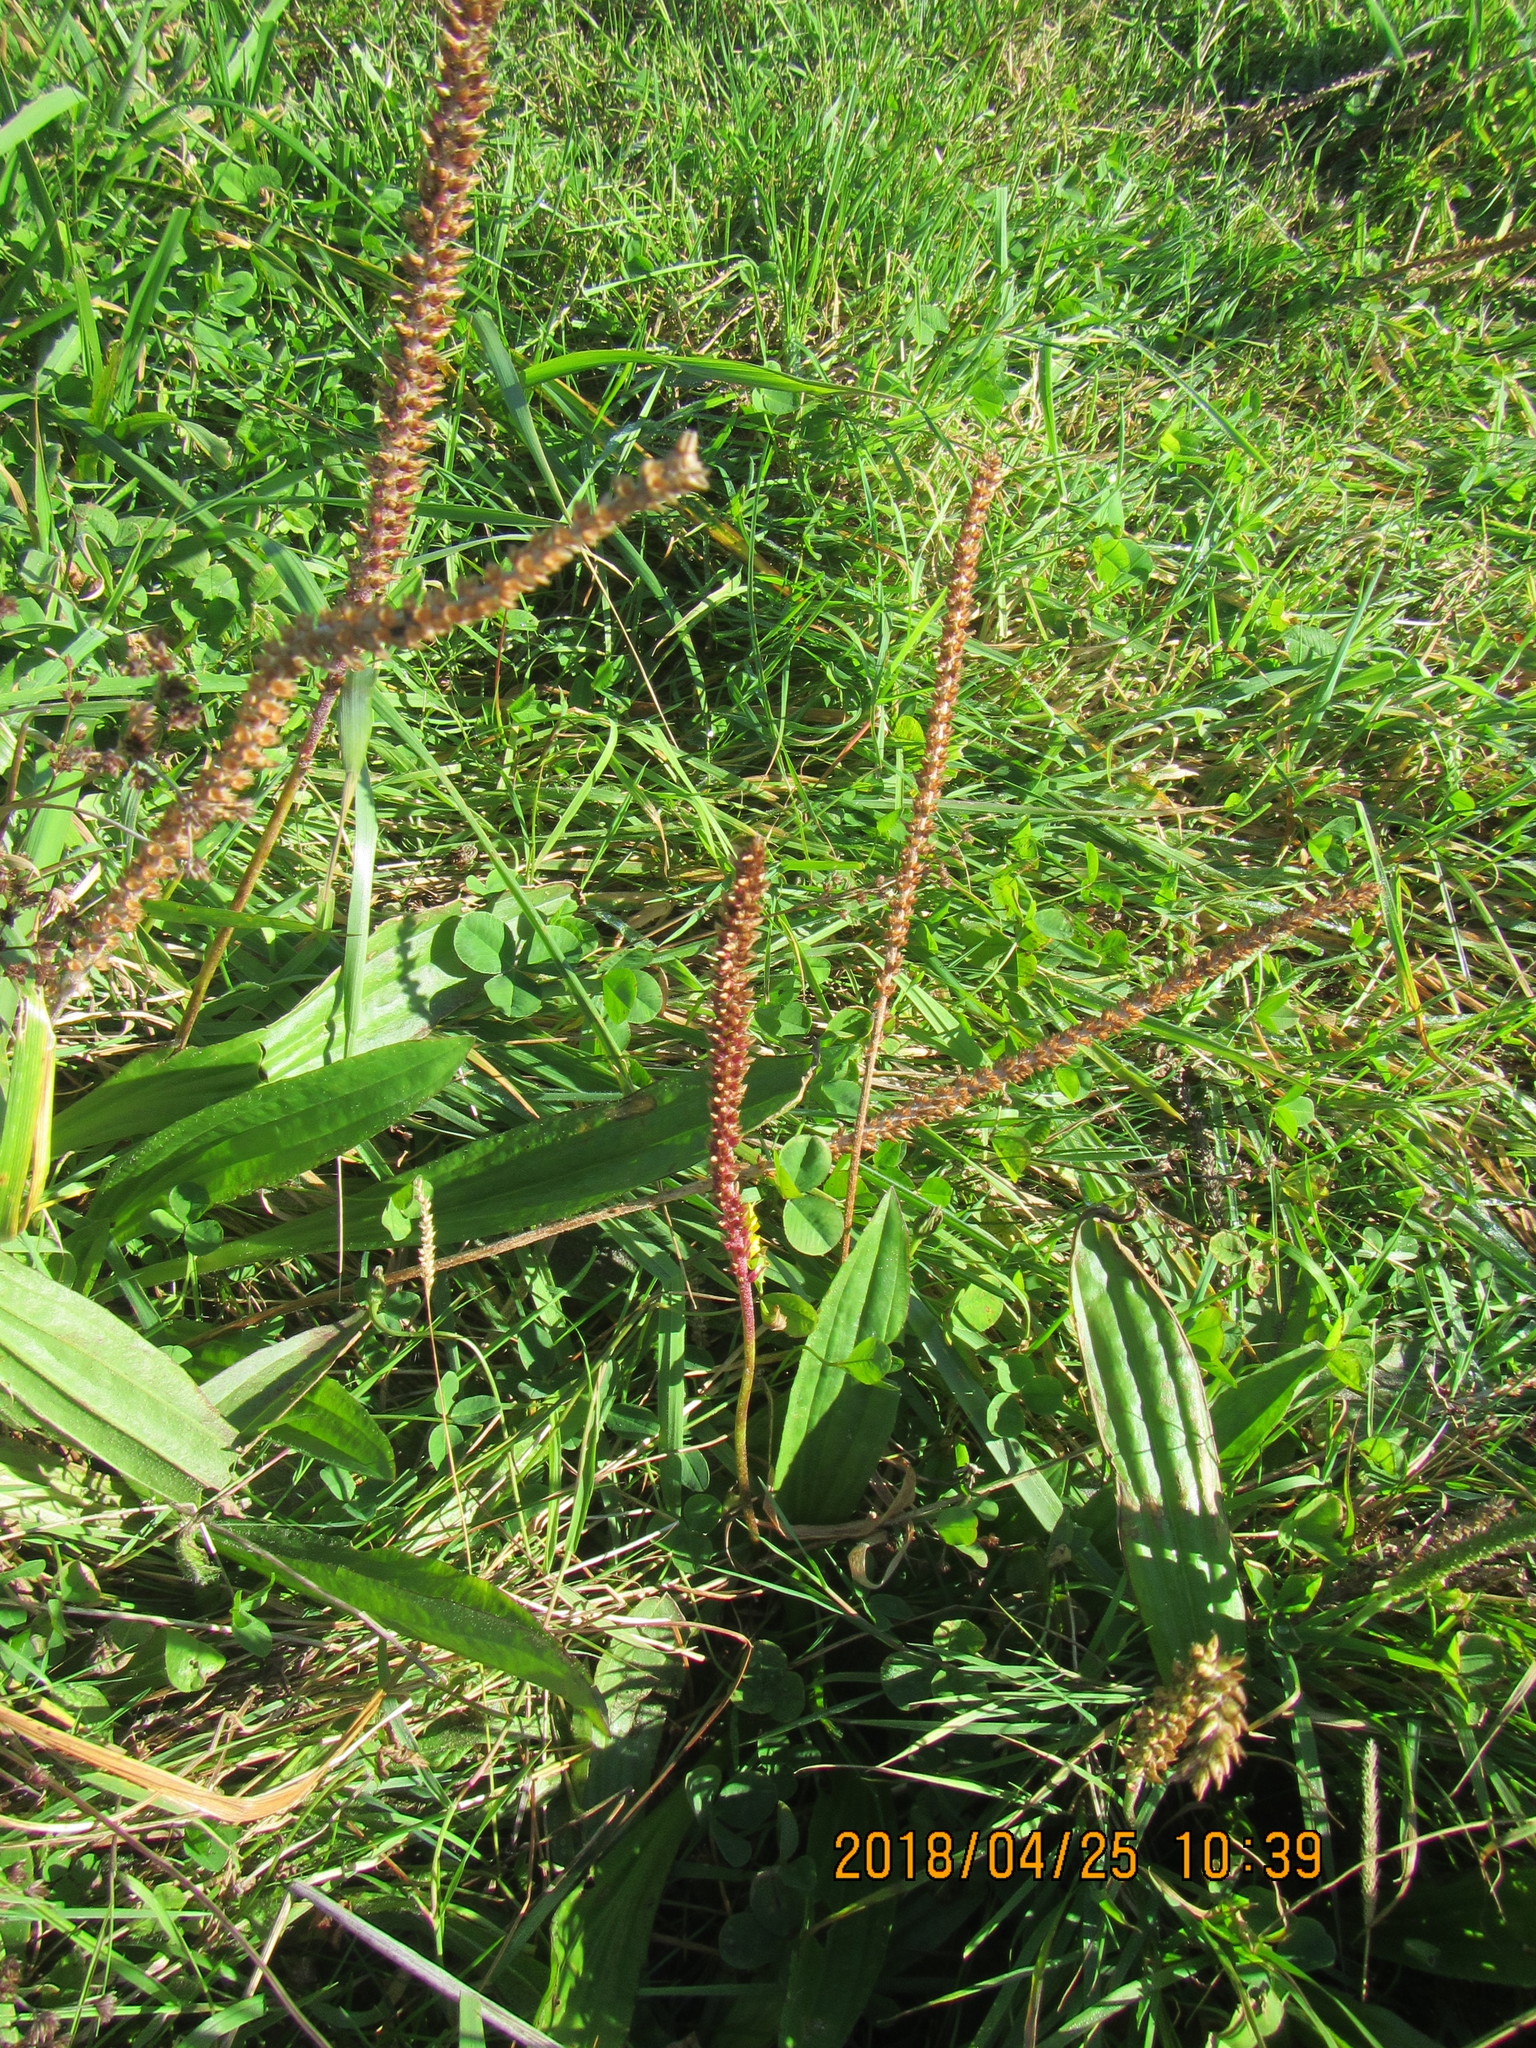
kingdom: Plantae
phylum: Tracheophyta
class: Magnoliopsida
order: Lamiales
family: Plantaginaceae
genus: Plantago
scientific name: Plantago australis
